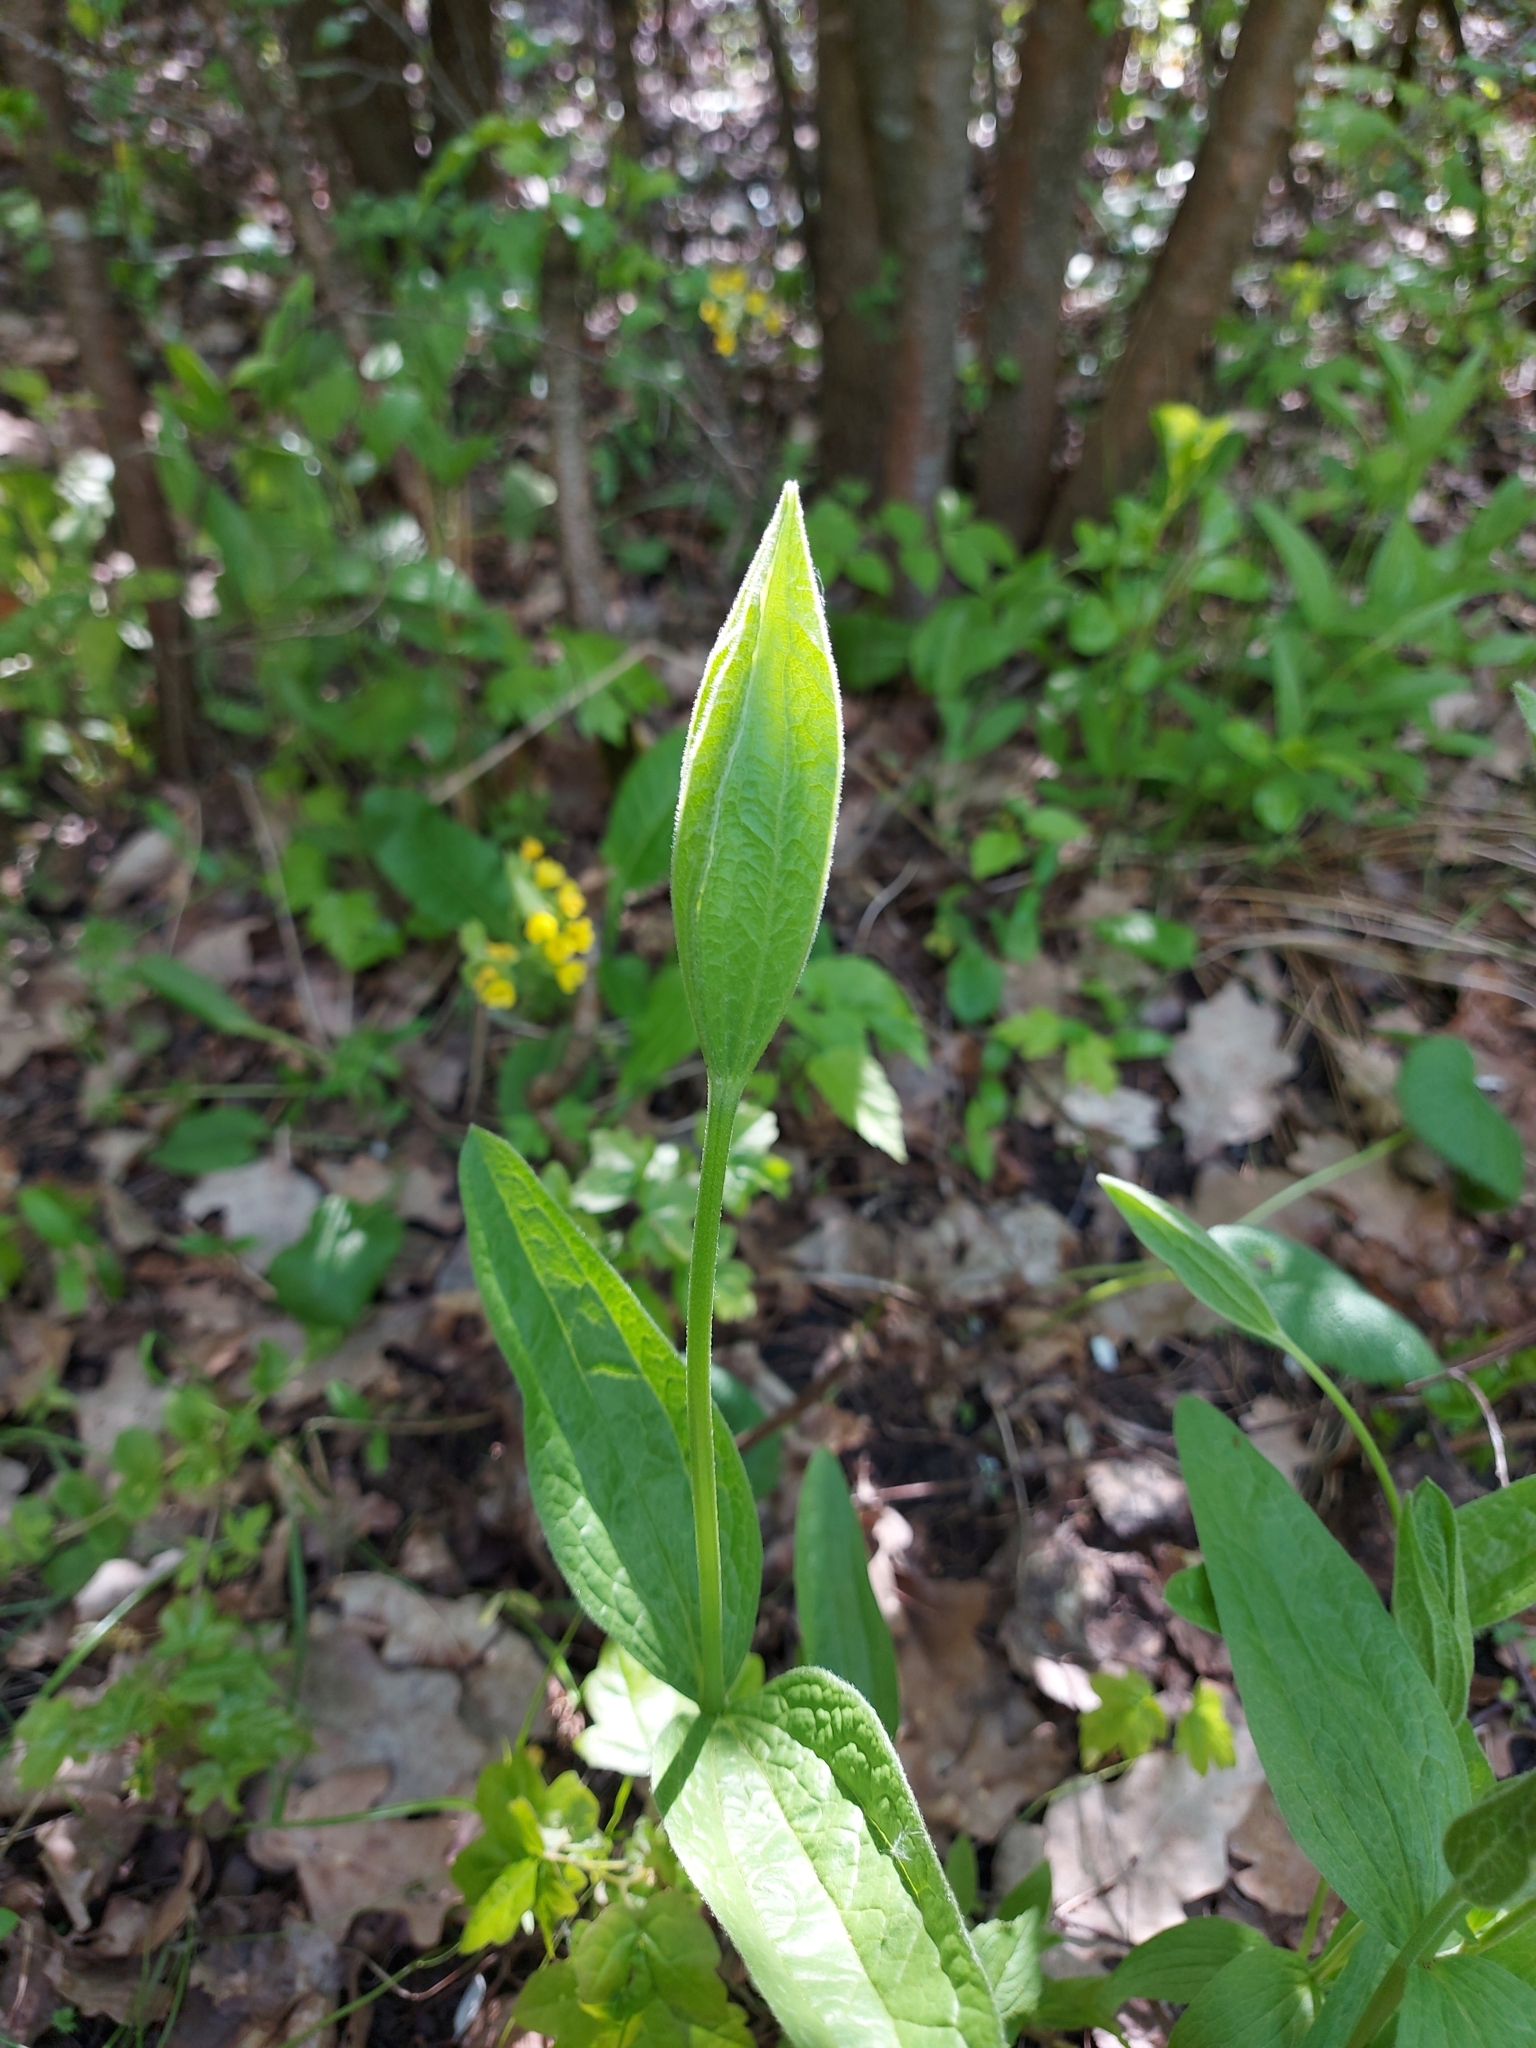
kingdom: Plantae
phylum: Tracheophyta
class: Magnoliopsida
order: Ranunculales
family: Ranunculaceae
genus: Clematis
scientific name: Clematis integrifolia
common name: Solitary clematis
